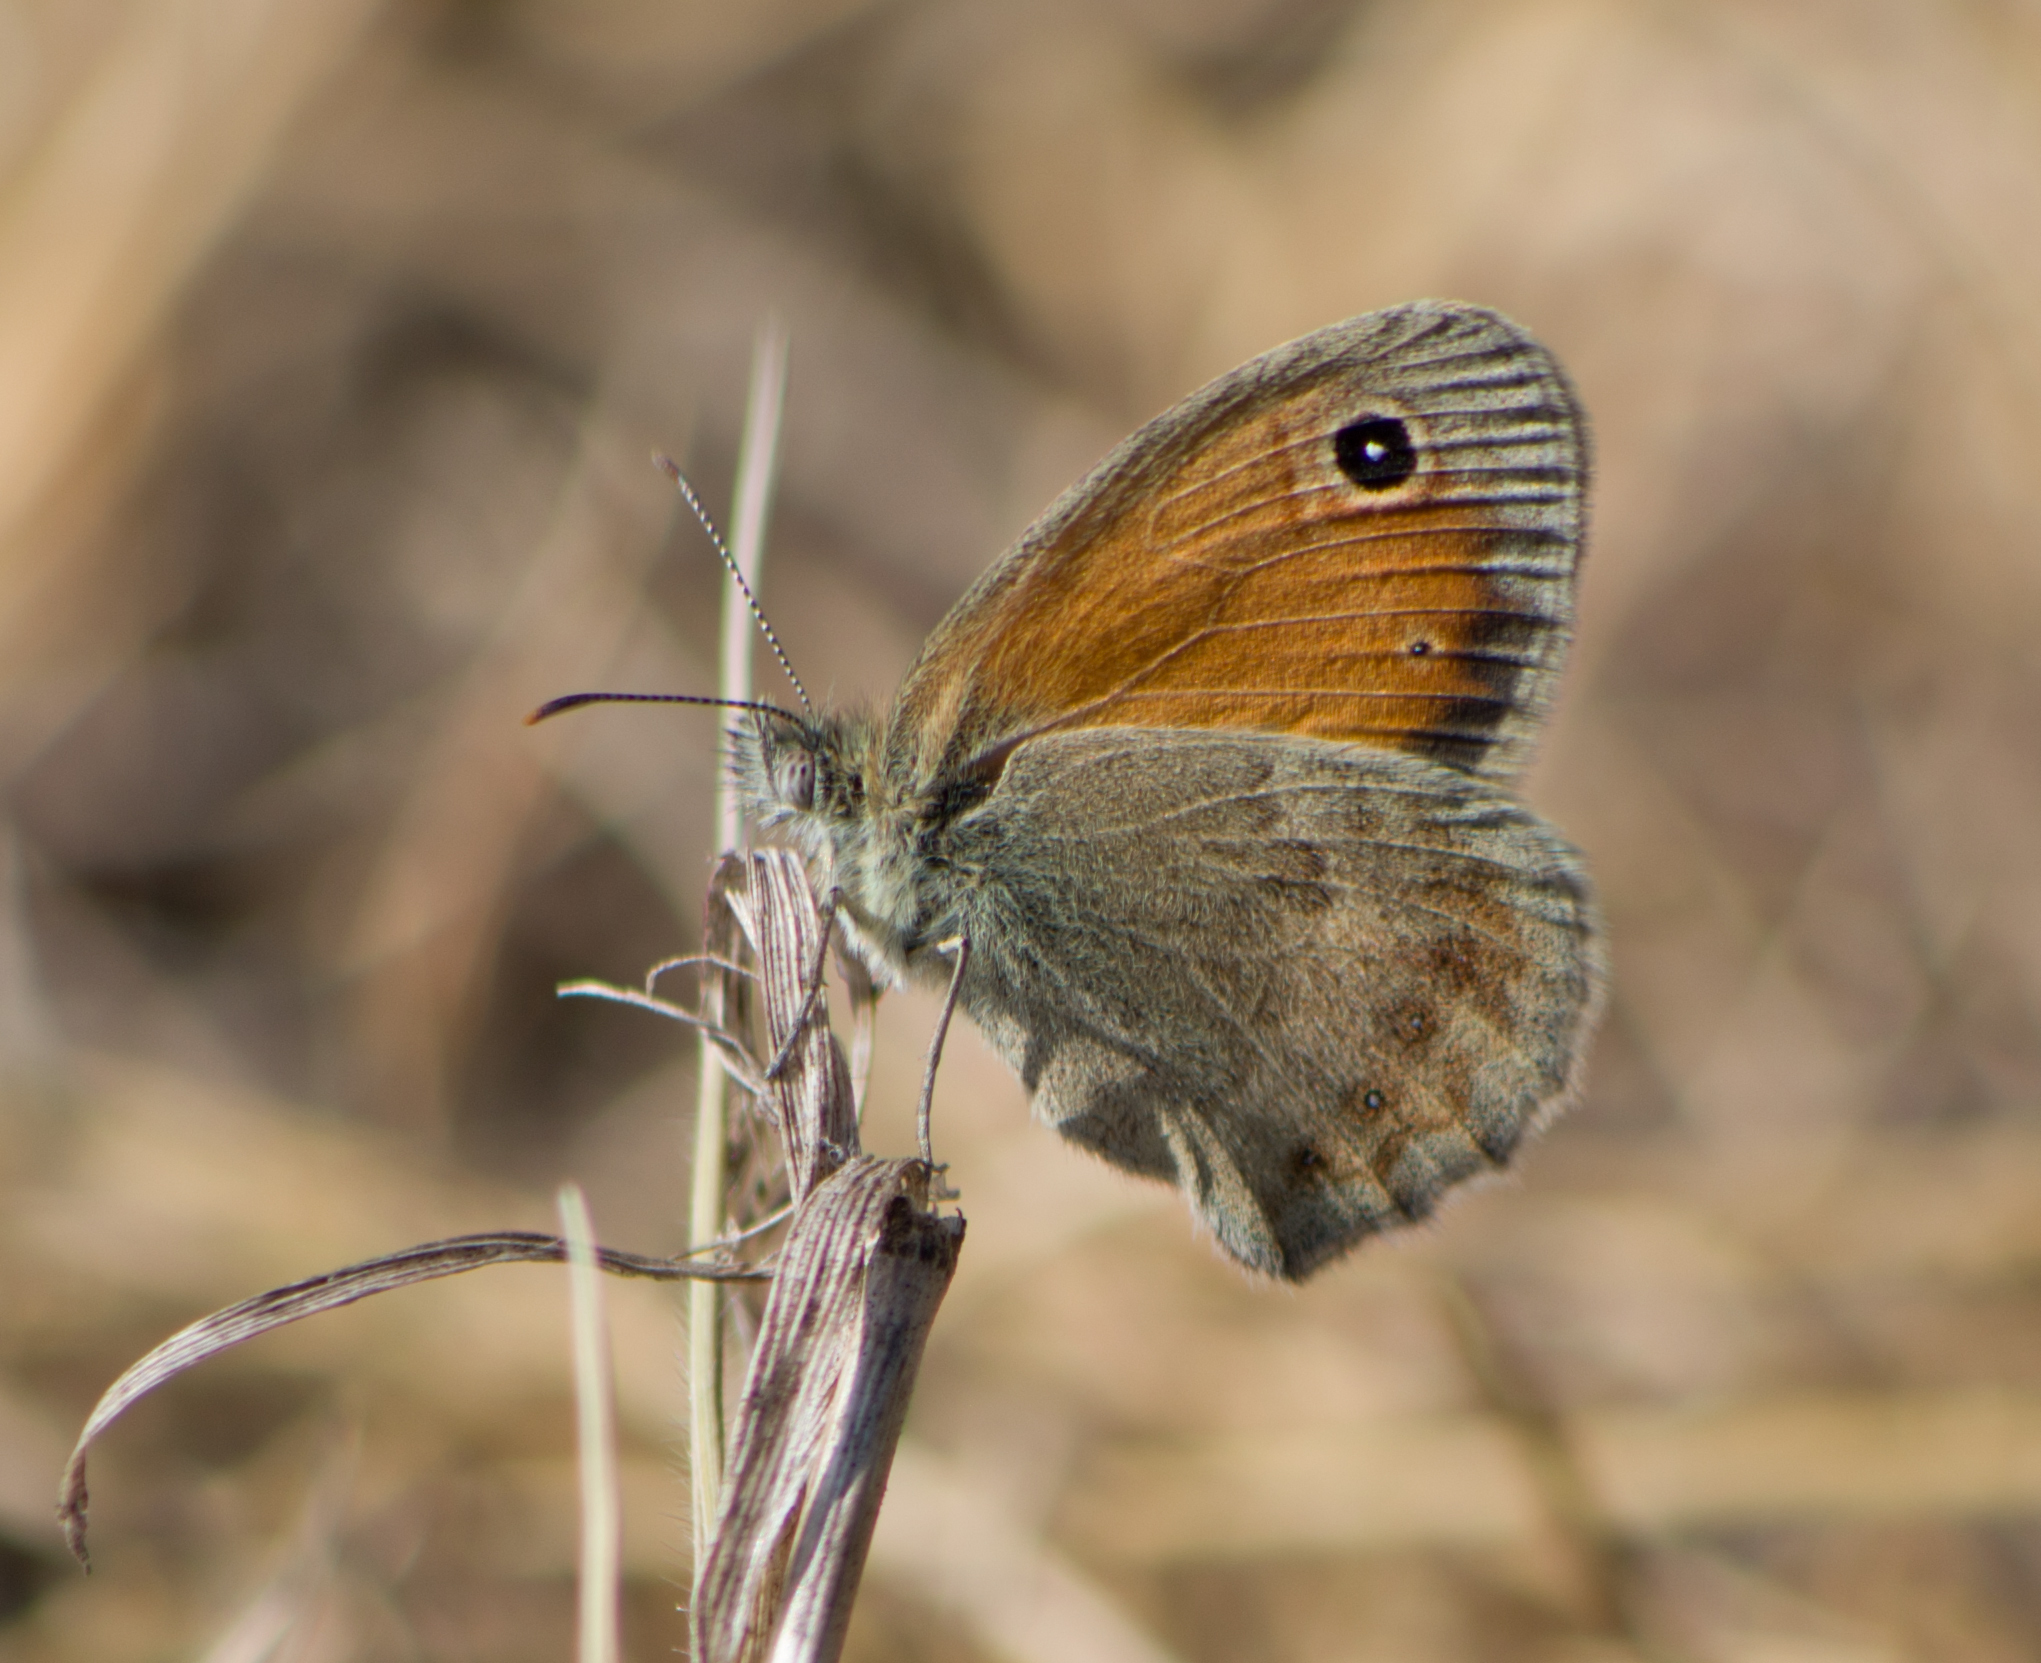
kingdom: Animalia
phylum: Arthropoda
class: Insecta
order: Lepidoptera
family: Nymphalidae
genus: Coenonympha
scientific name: Coenonympha pamphilus
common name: Small heath
